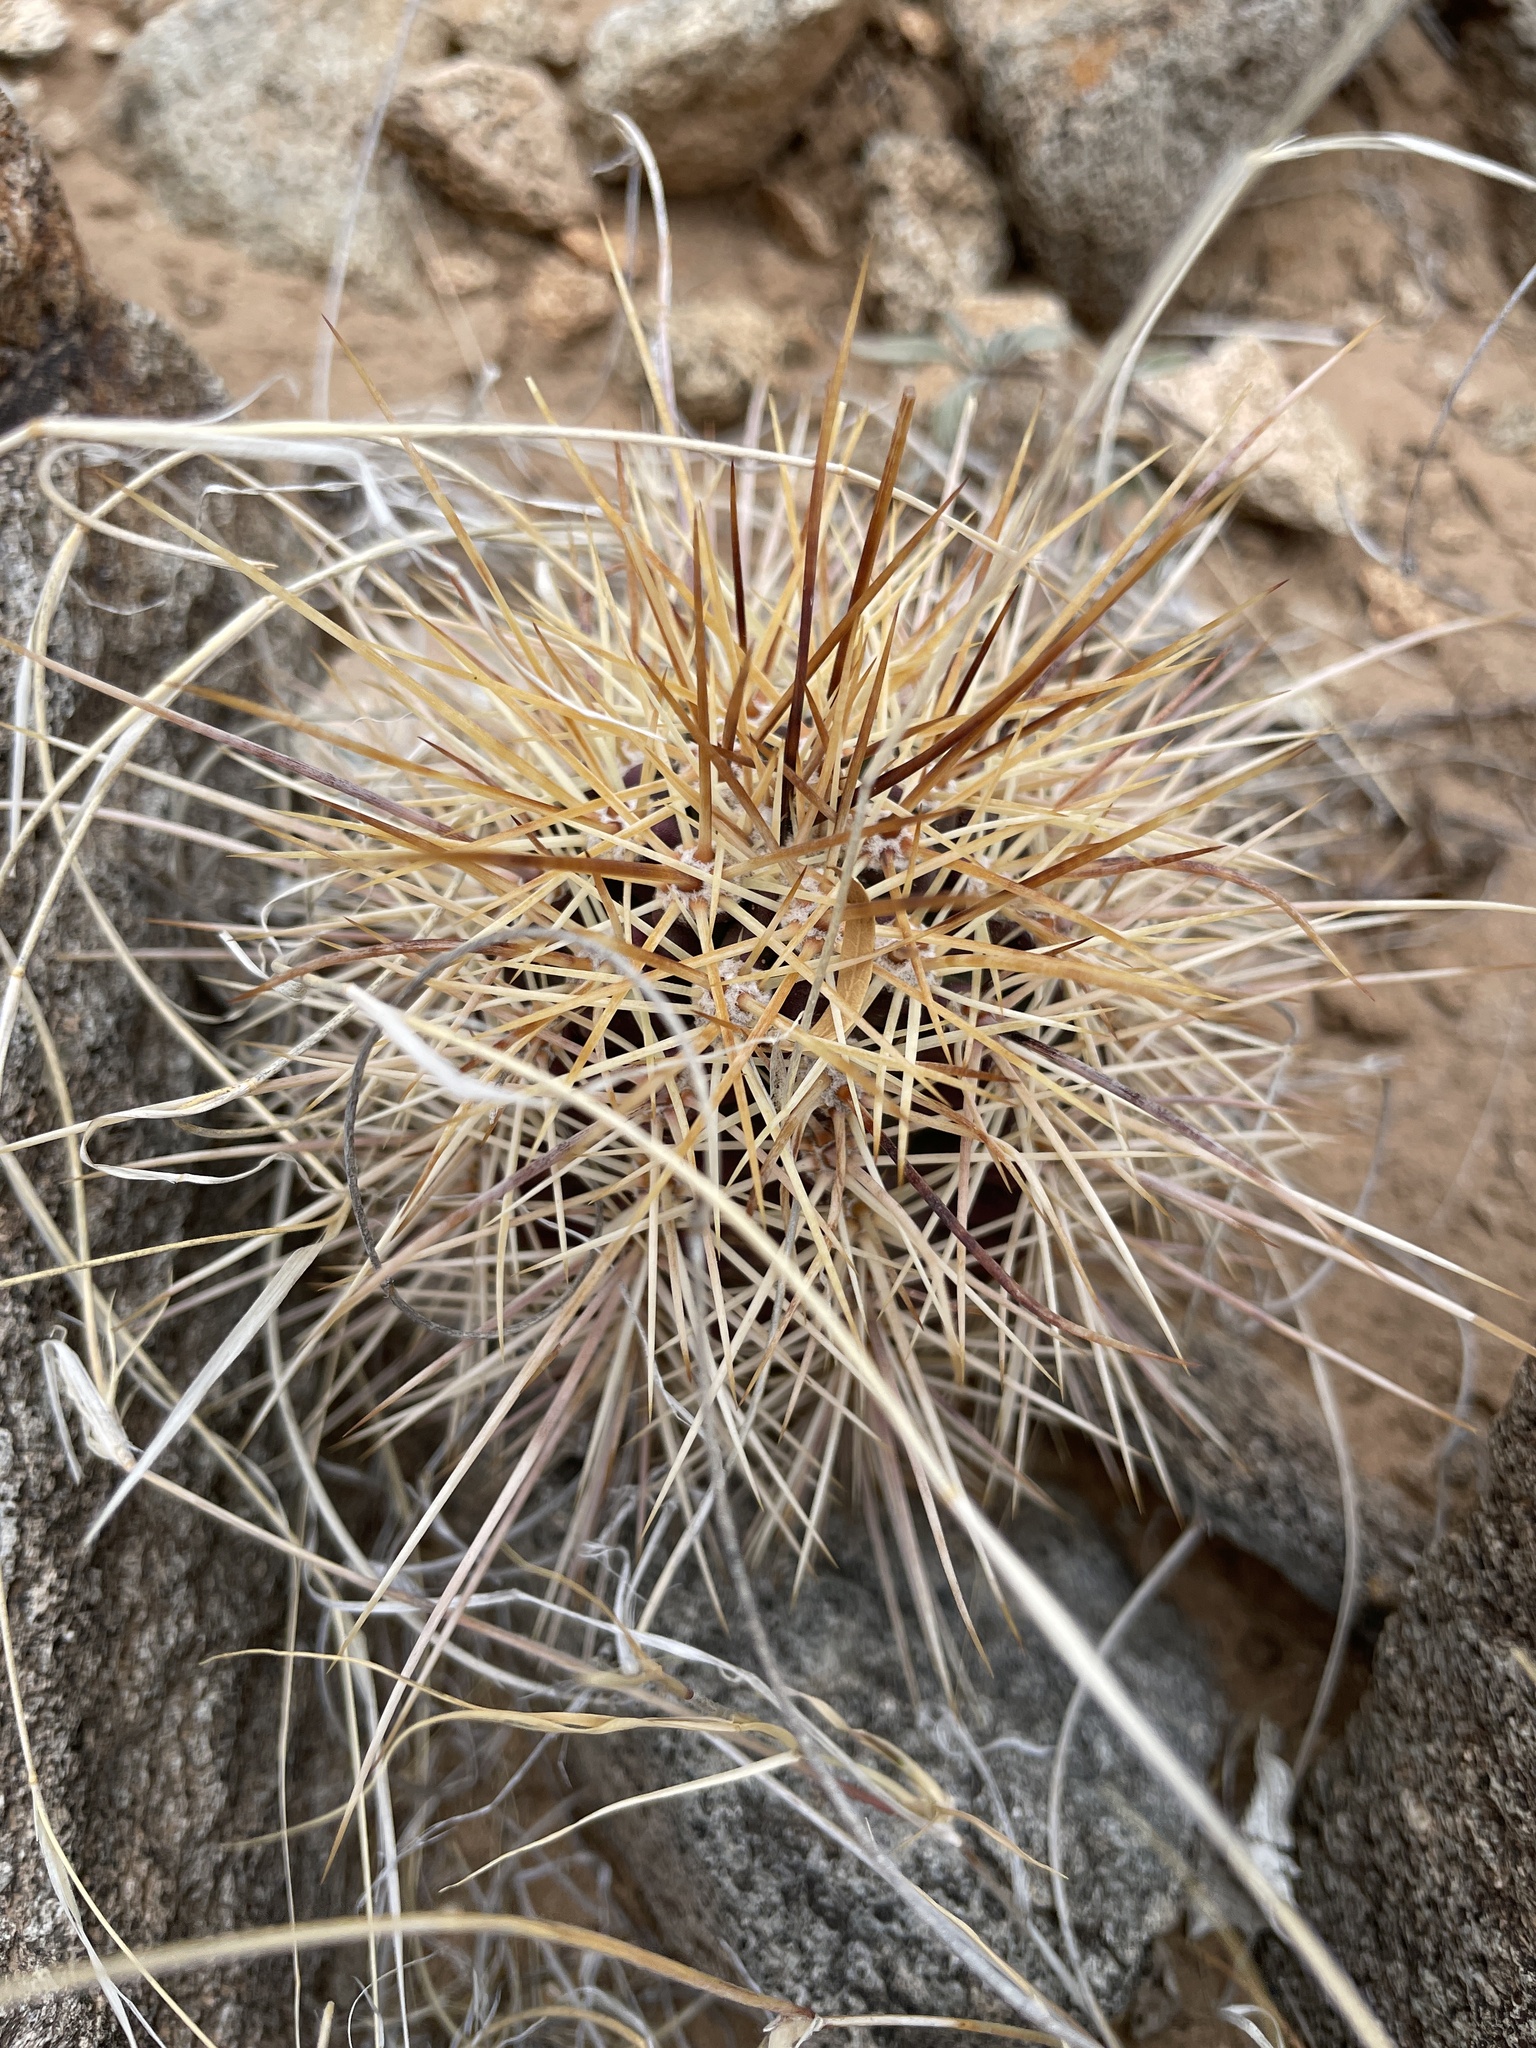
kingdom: Plantae
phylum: Tracheophyta
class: Magnoliopsida
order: Caryophyllales
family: Cactaceae
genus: Echinocereus
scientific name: Echinocereus coccineus
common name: Scarlet hedgehog cactus
